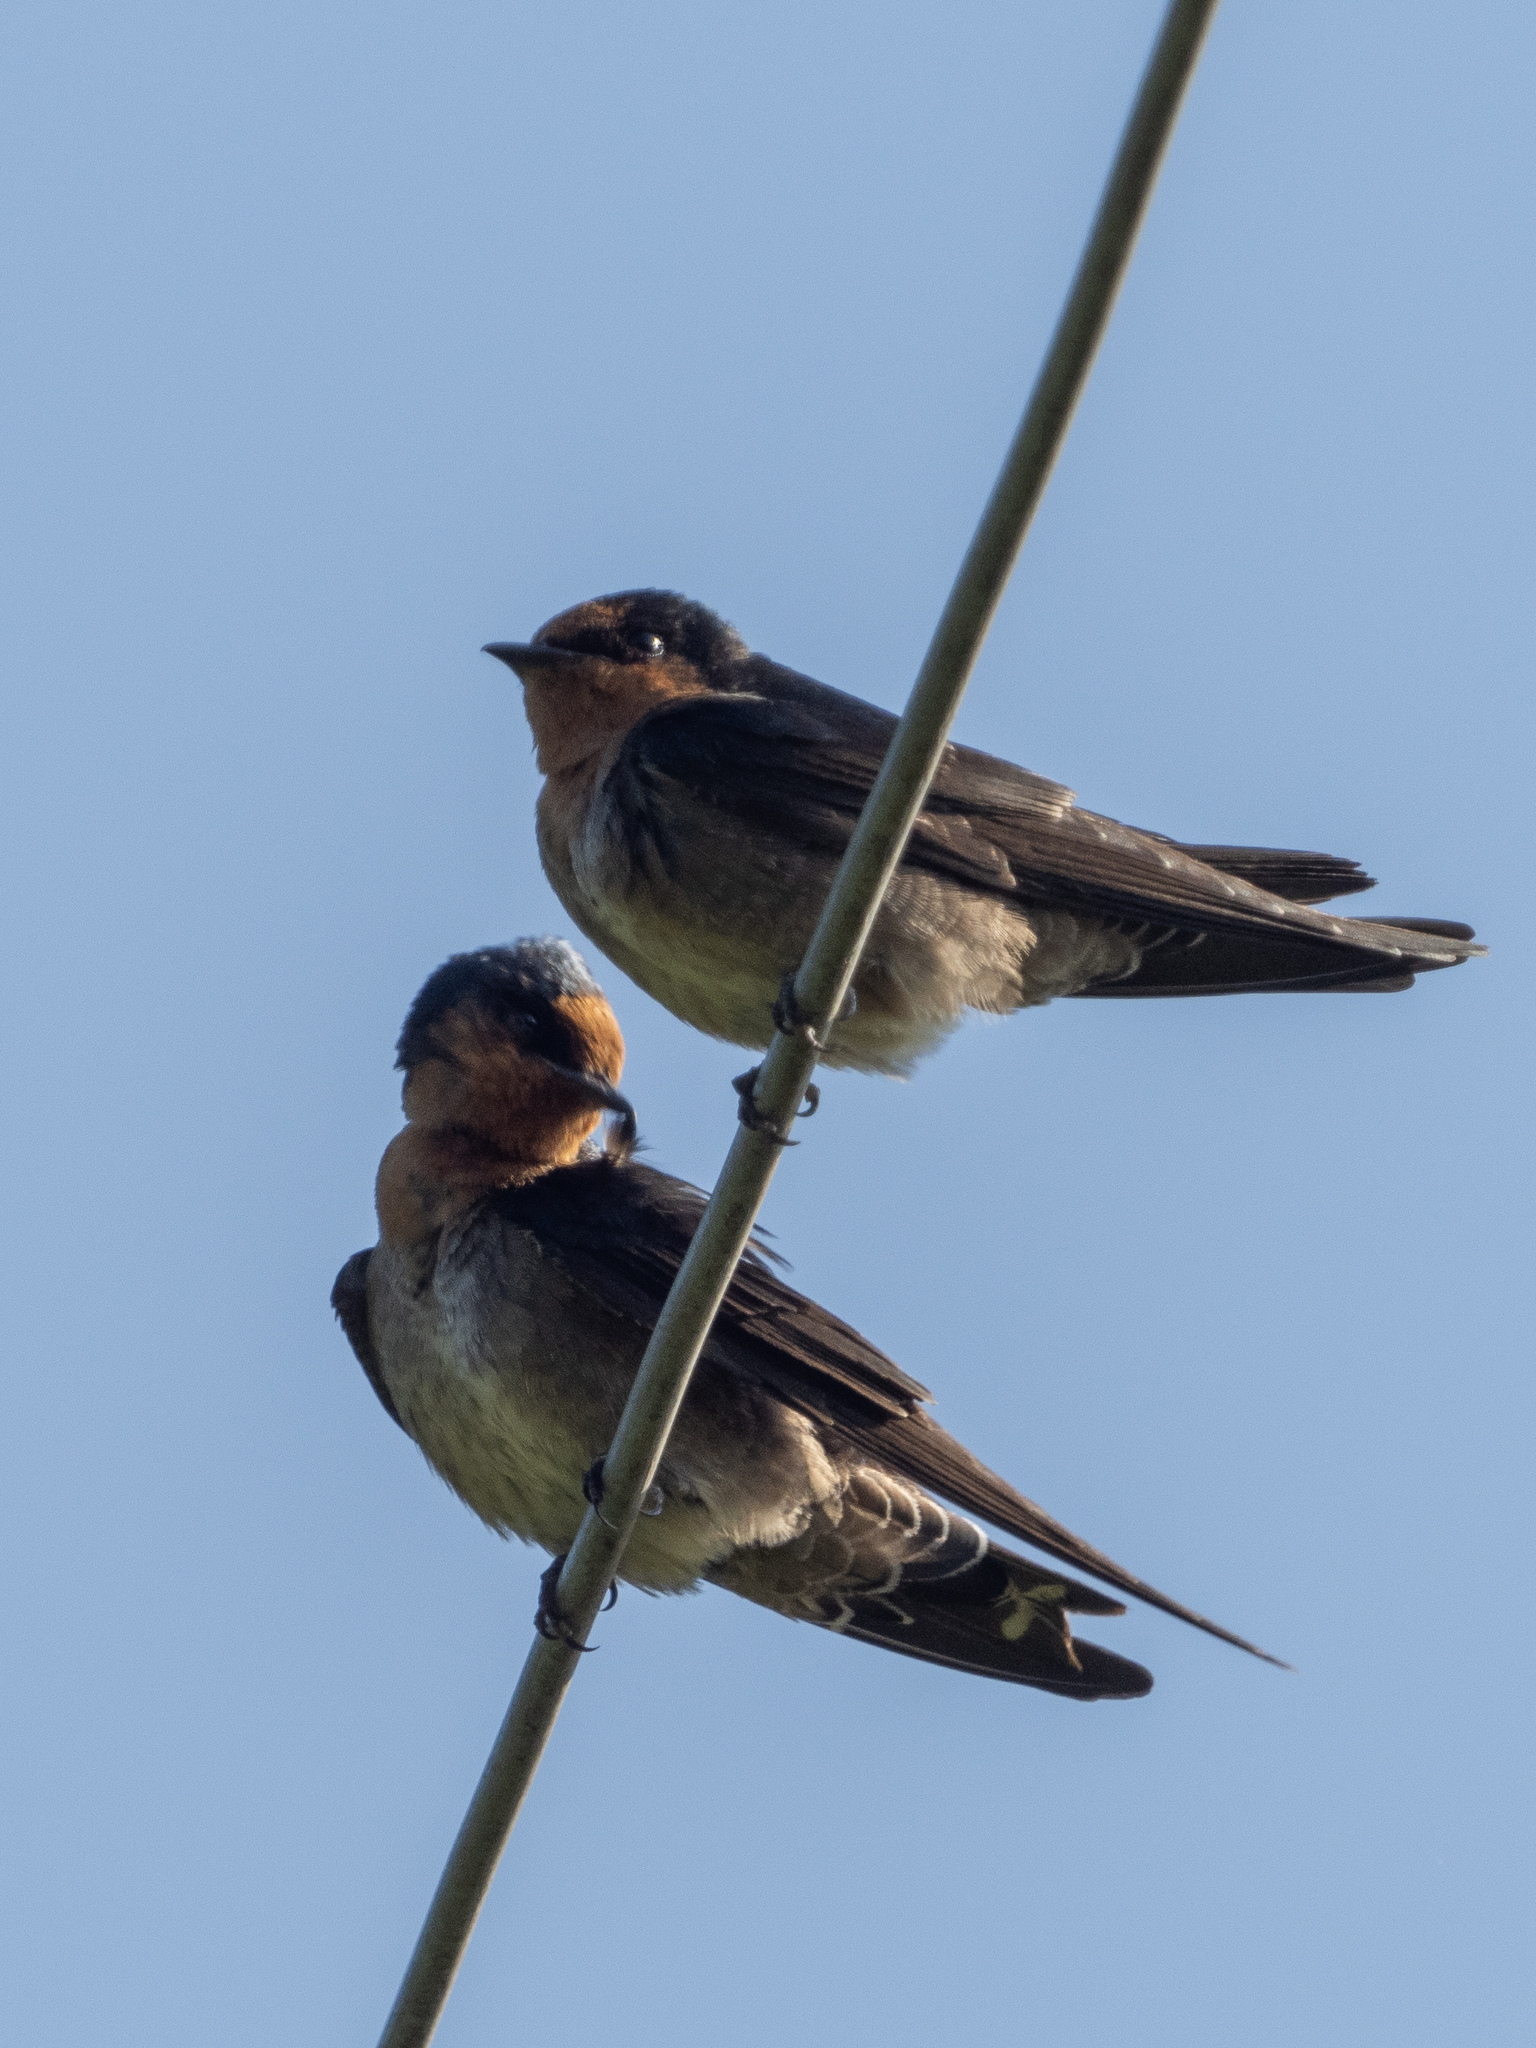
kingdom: Animalia
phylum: Chordata
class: Aves
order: Passeriformes
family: Hirundinidae
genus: Hirundo
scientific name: Hirundo domicola
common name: Hill swallow
